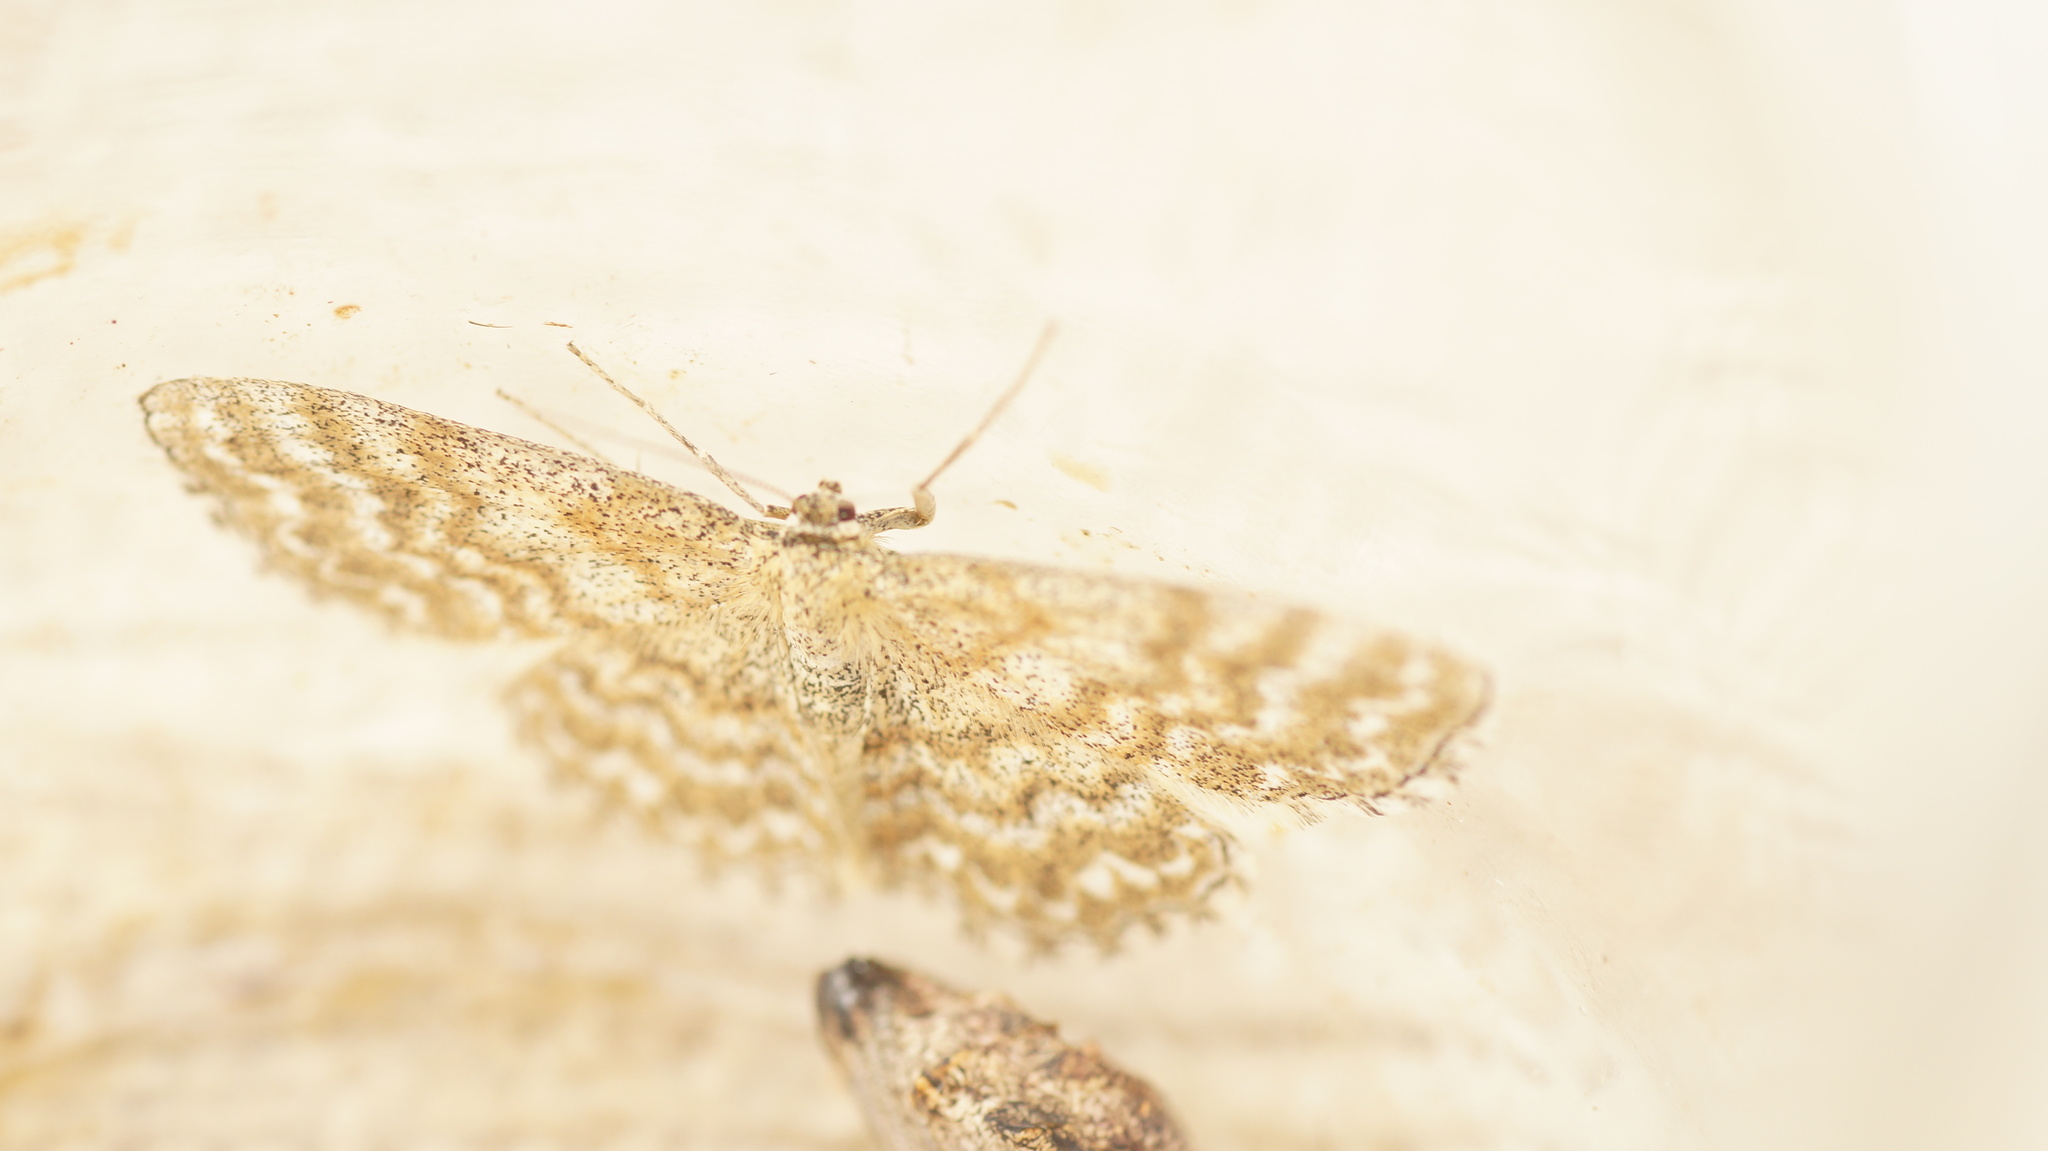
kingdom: Animalia
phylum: Arthropoda
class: Insecta
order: Lepidoptera
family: Geometridae
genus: Scopula
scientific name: Scopula immorata
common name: Lewes wave
